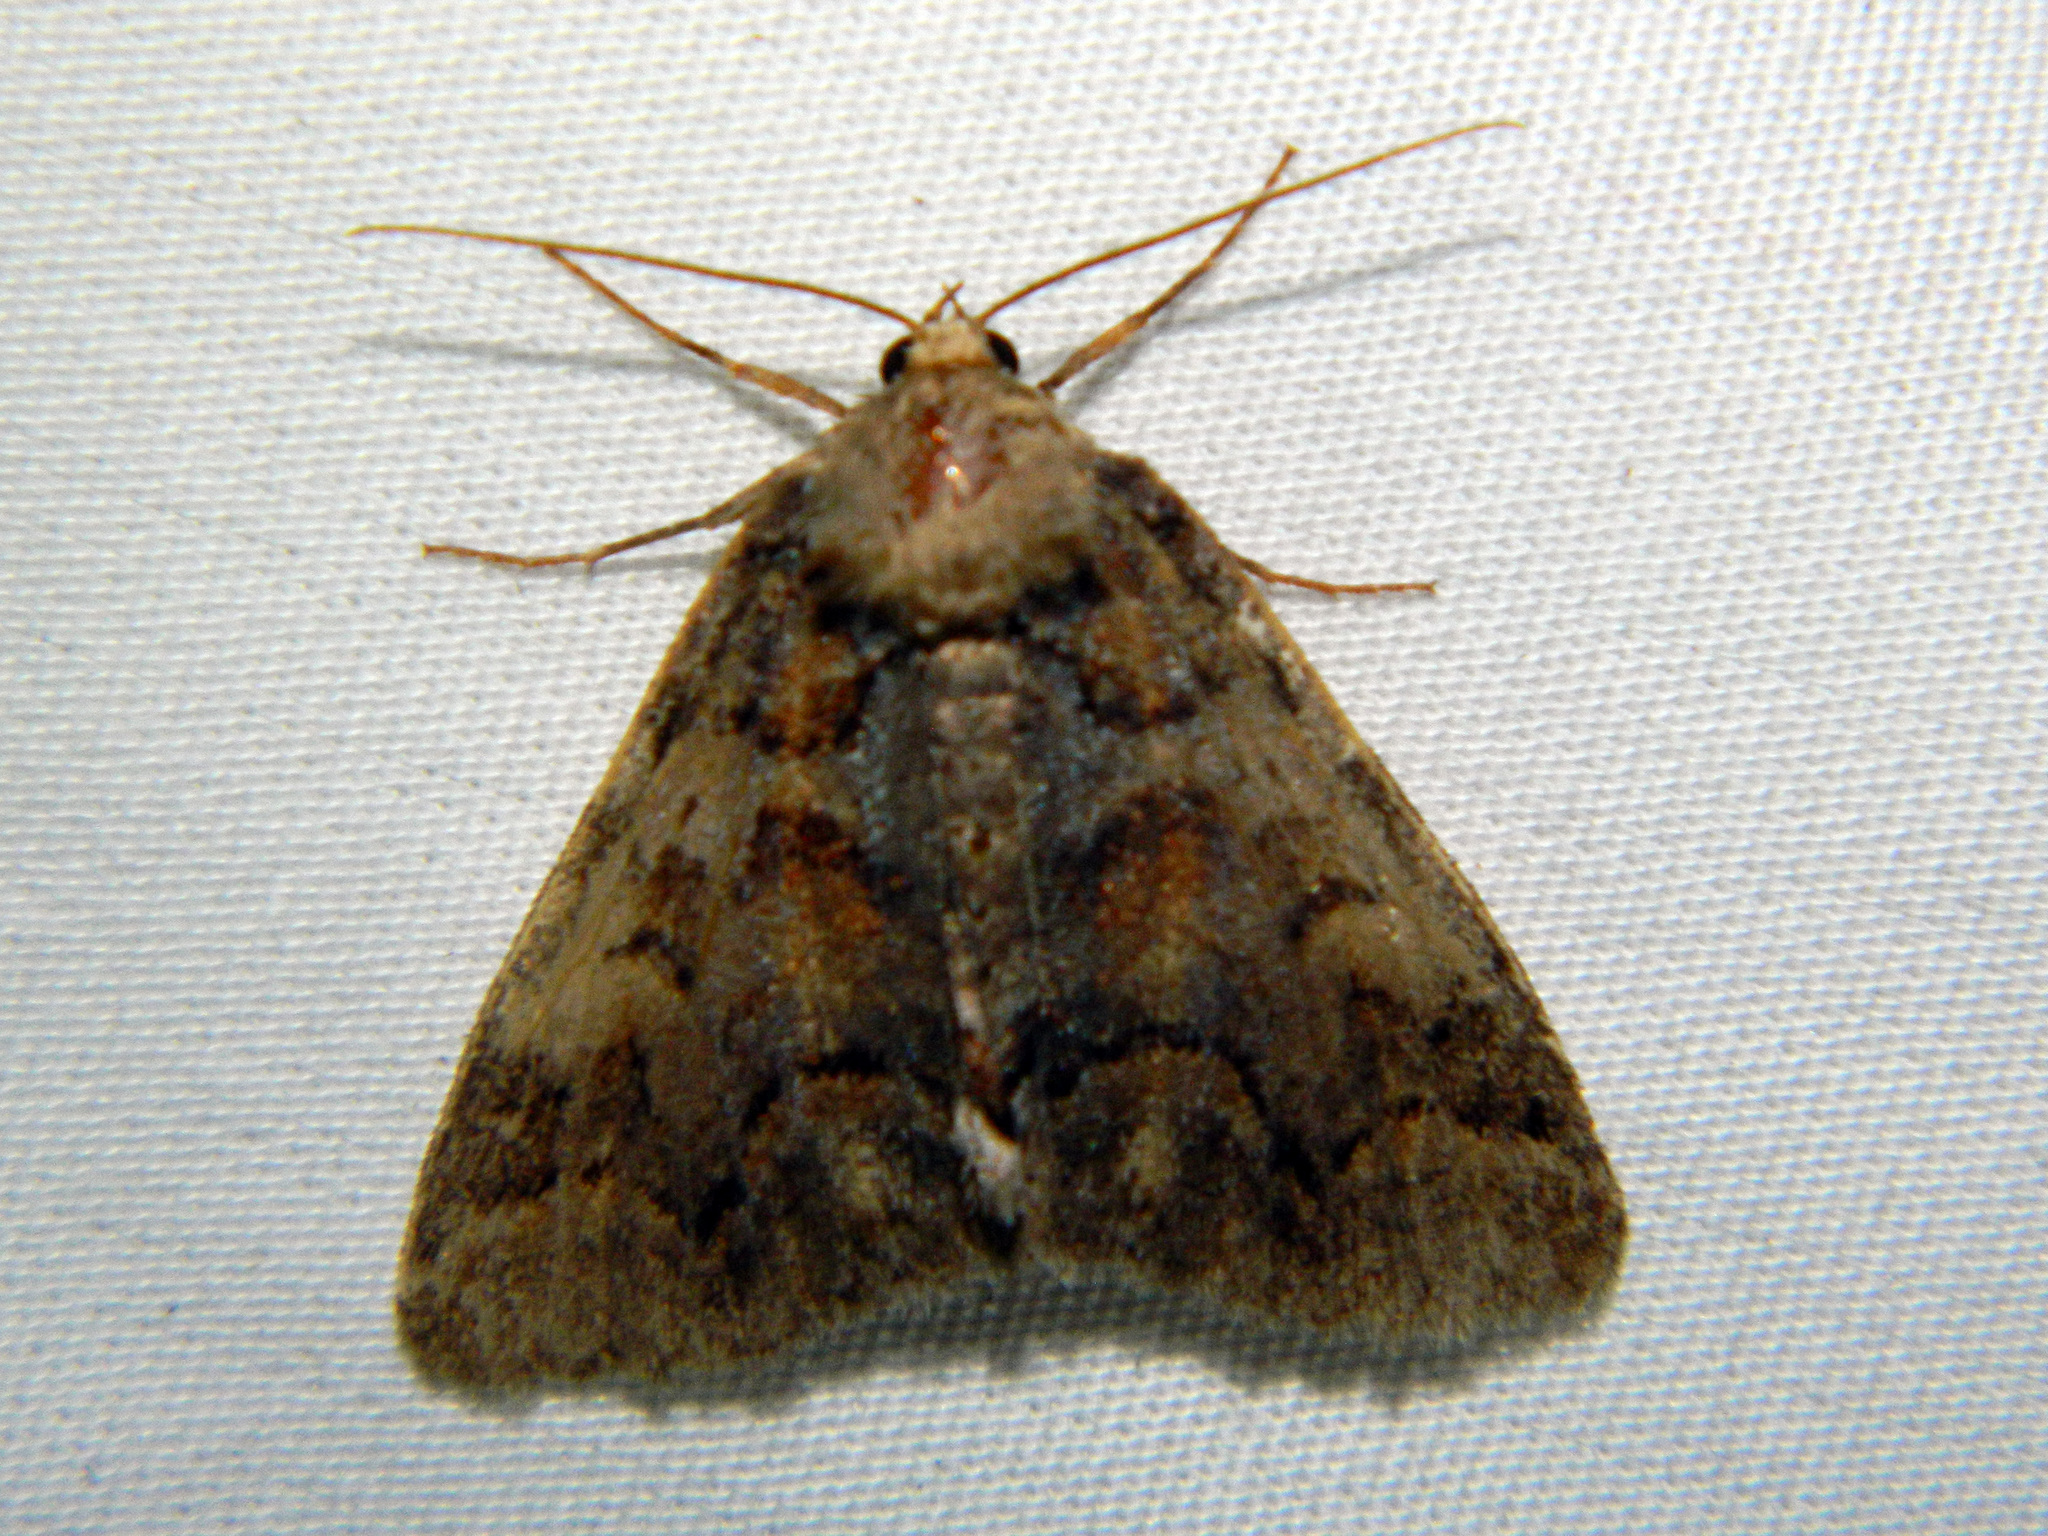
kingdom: Animalia
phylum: Arthropoda
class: Insecta
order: Lepidoptera
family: Erebidae
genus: Zale
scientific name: Zale duplicata
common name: Pine false looper moth
